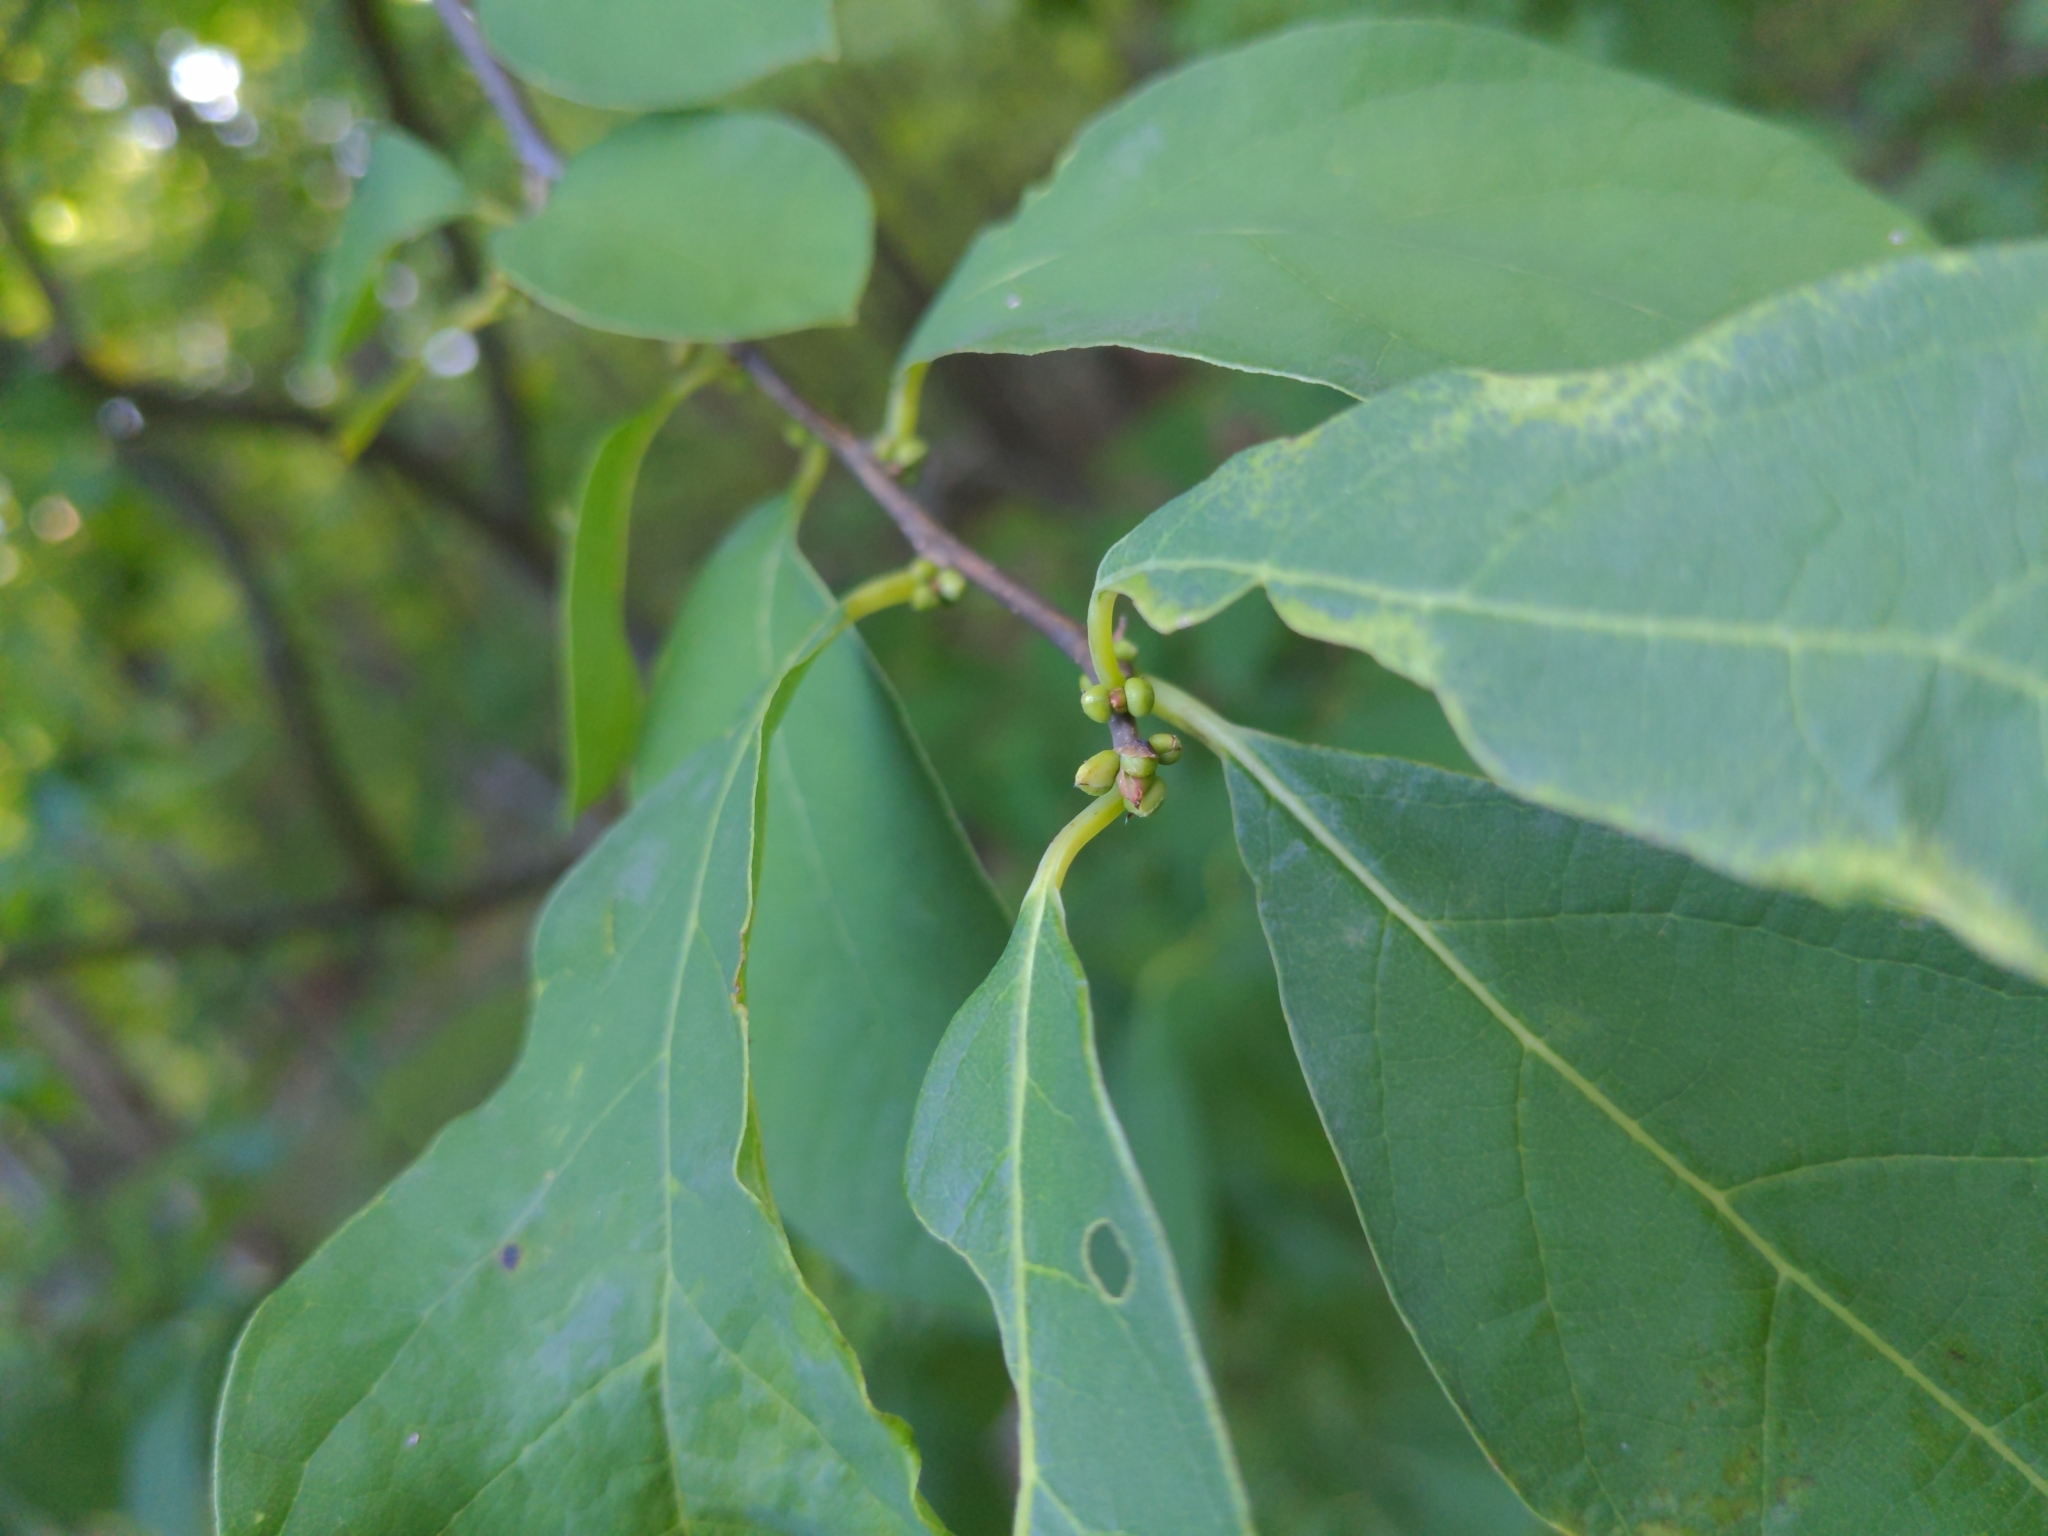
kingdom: Plantae
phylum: Tracheophyta
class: Magnoliopsida
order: Laurales
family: Lauraceae
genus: Lindera
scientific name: Lindera benzoin
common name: Spicebush
